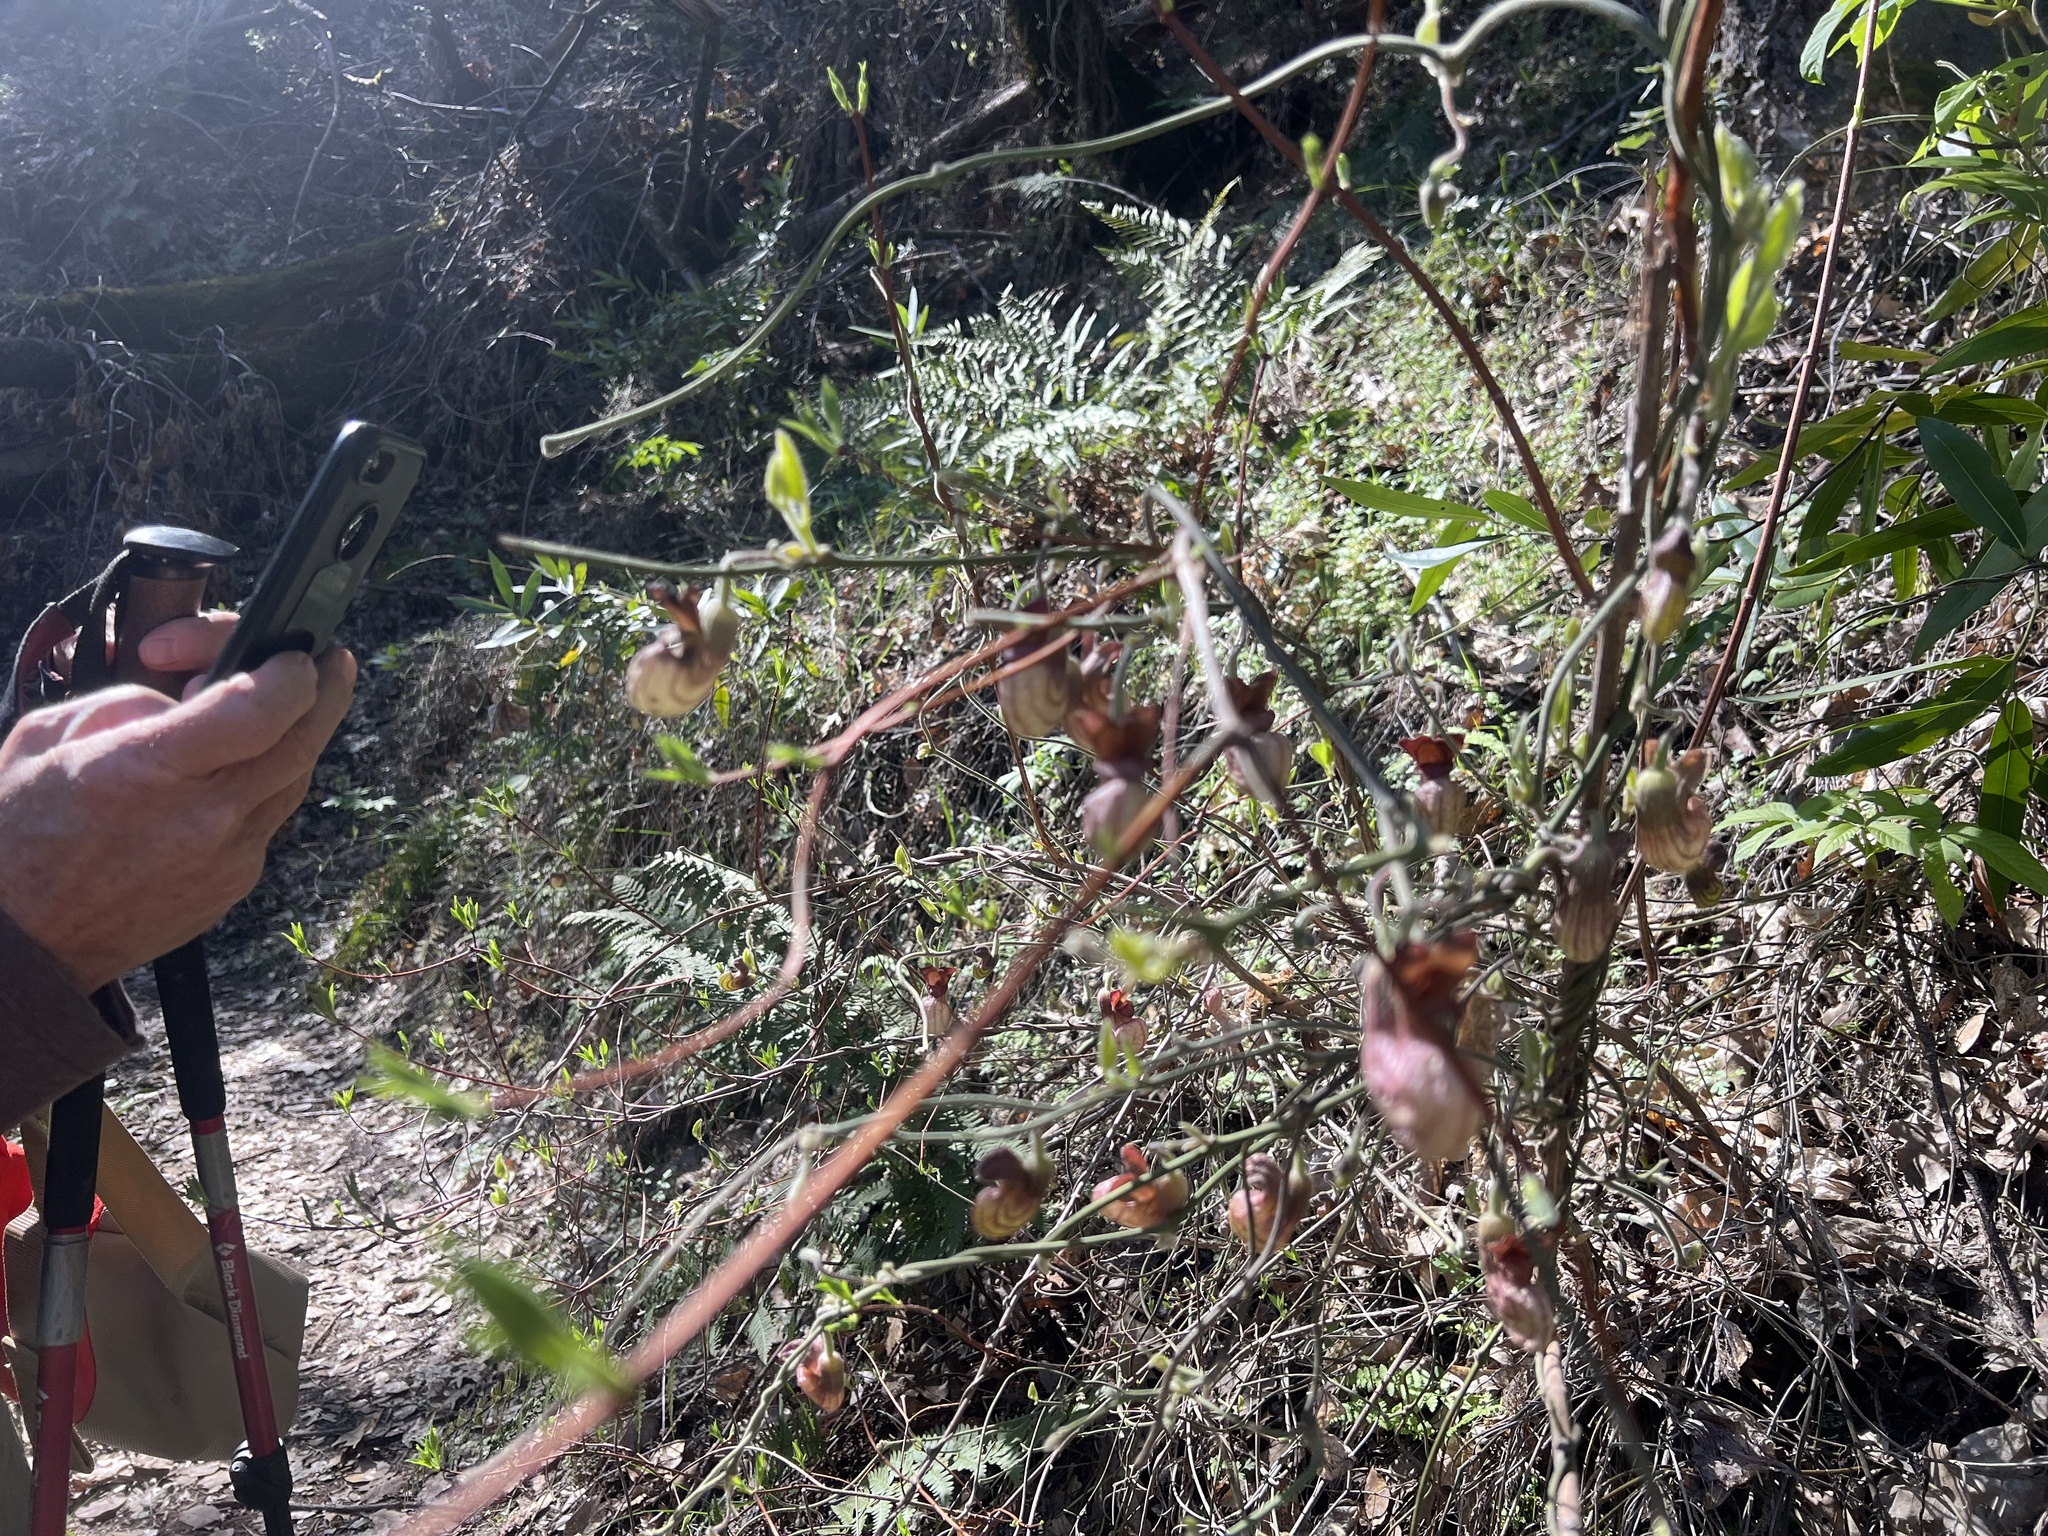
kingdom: Plantae
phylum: Tracheophyta
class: Magnoliopsida
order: Piperales
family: Aristolochiaceae
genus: Isotrema
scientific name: Isotrema californicum
